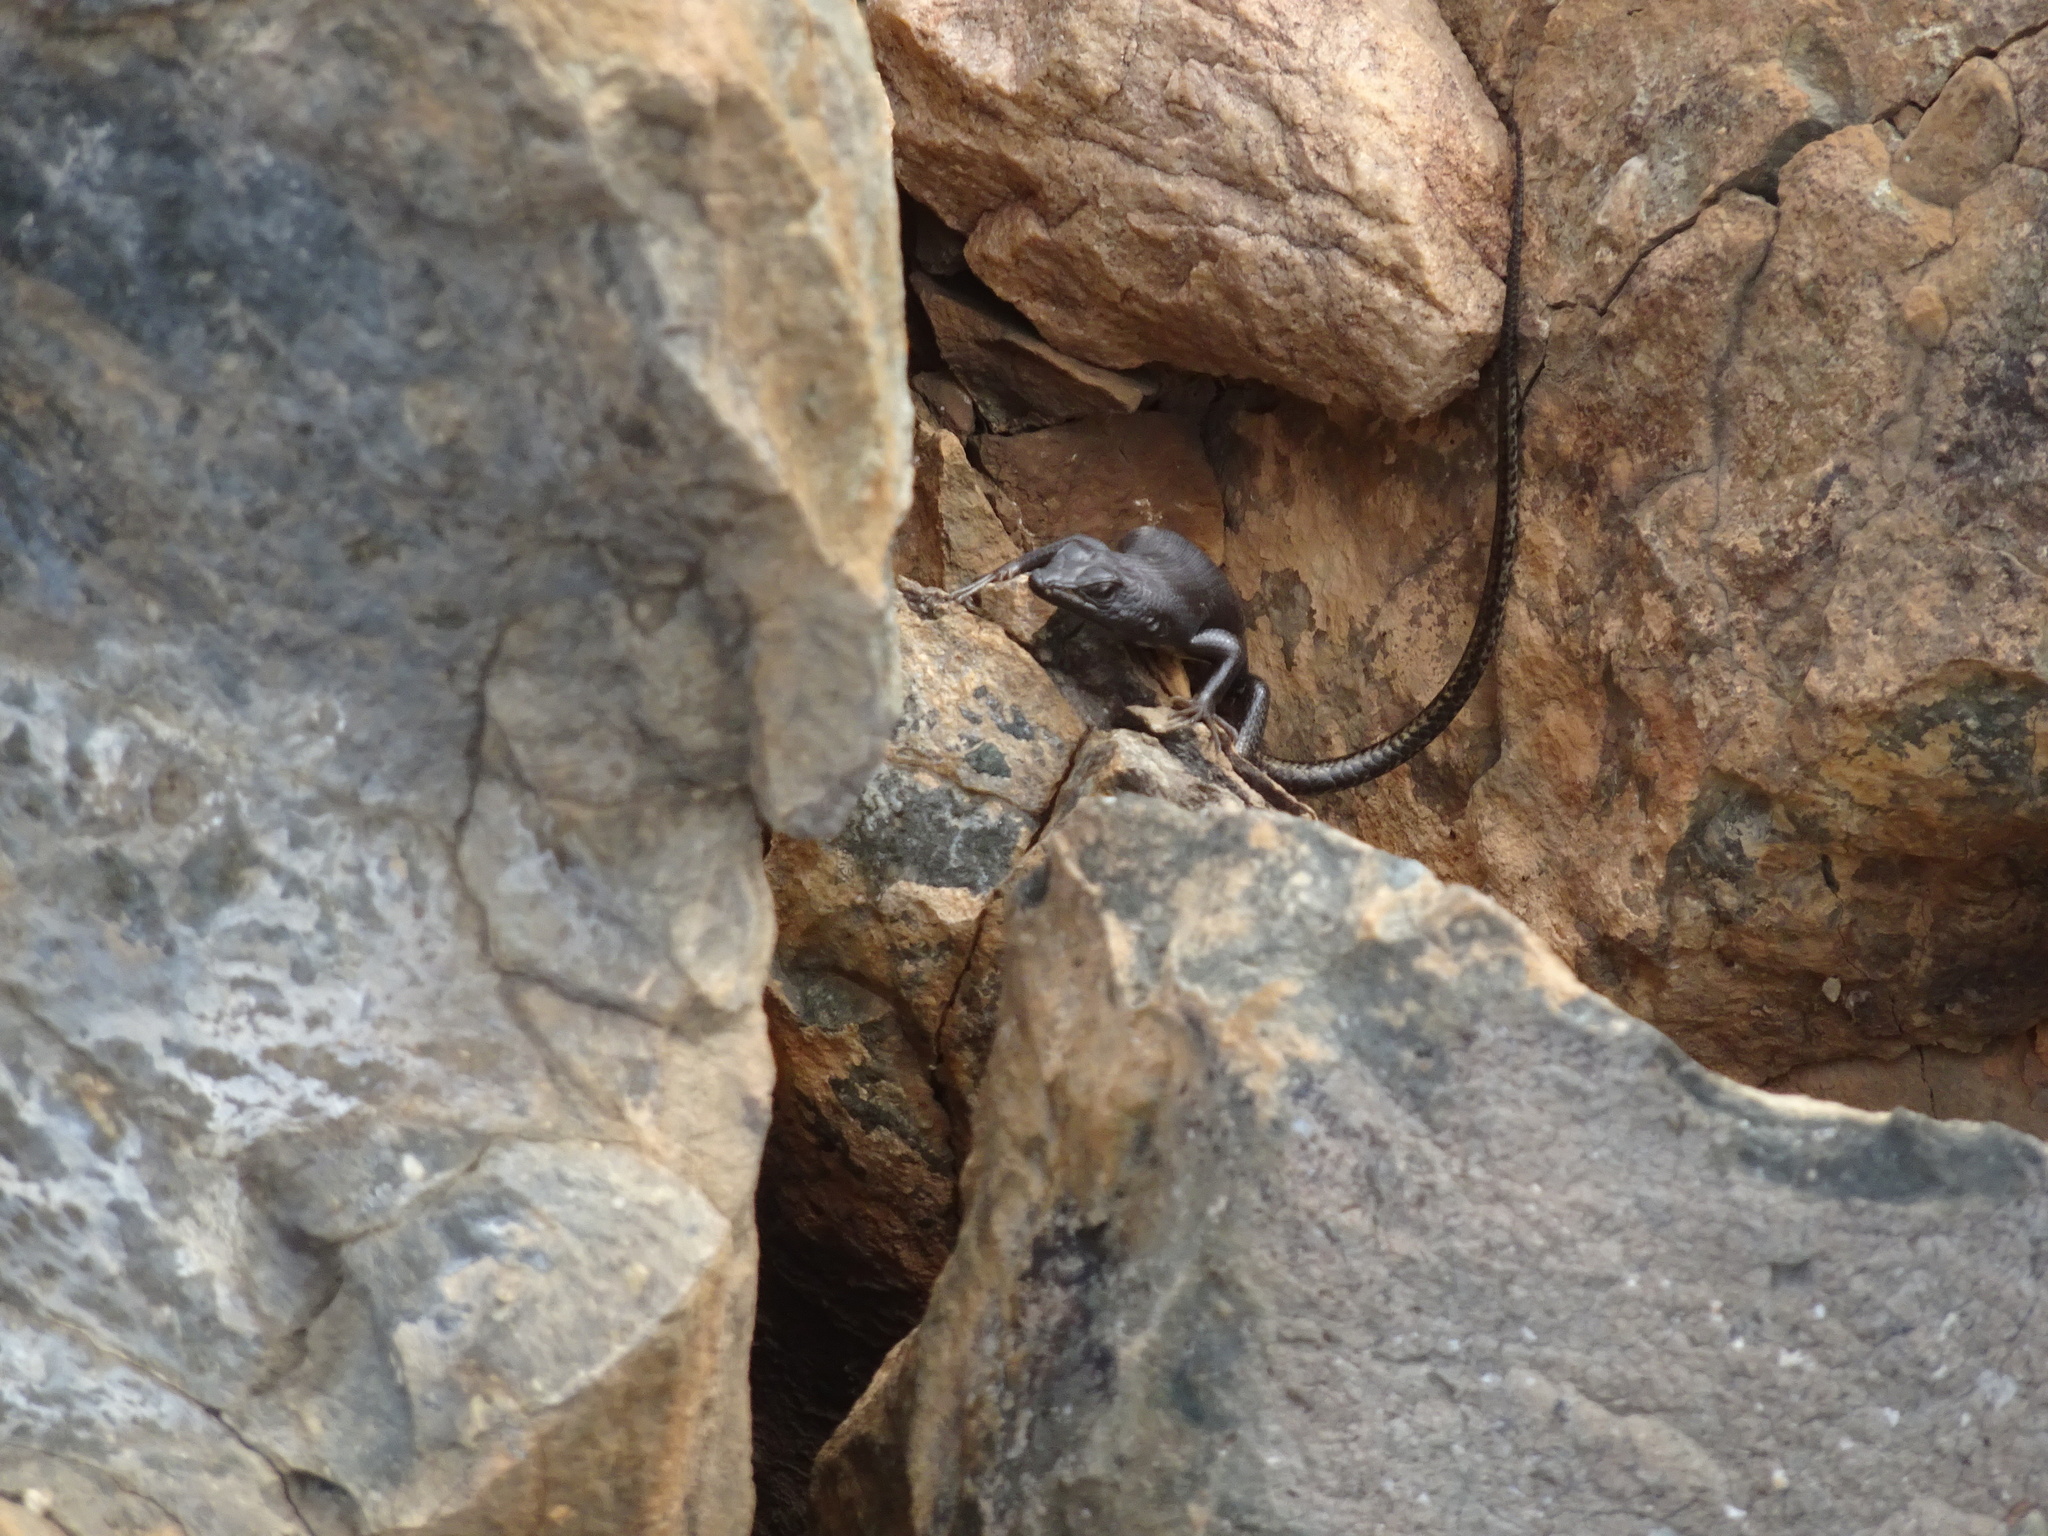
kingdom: Animalia
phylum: Chordata
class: Squamata
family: Scincidae
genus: Trachylepis
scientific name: Trachylepis sulcata
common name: Western rock skink
